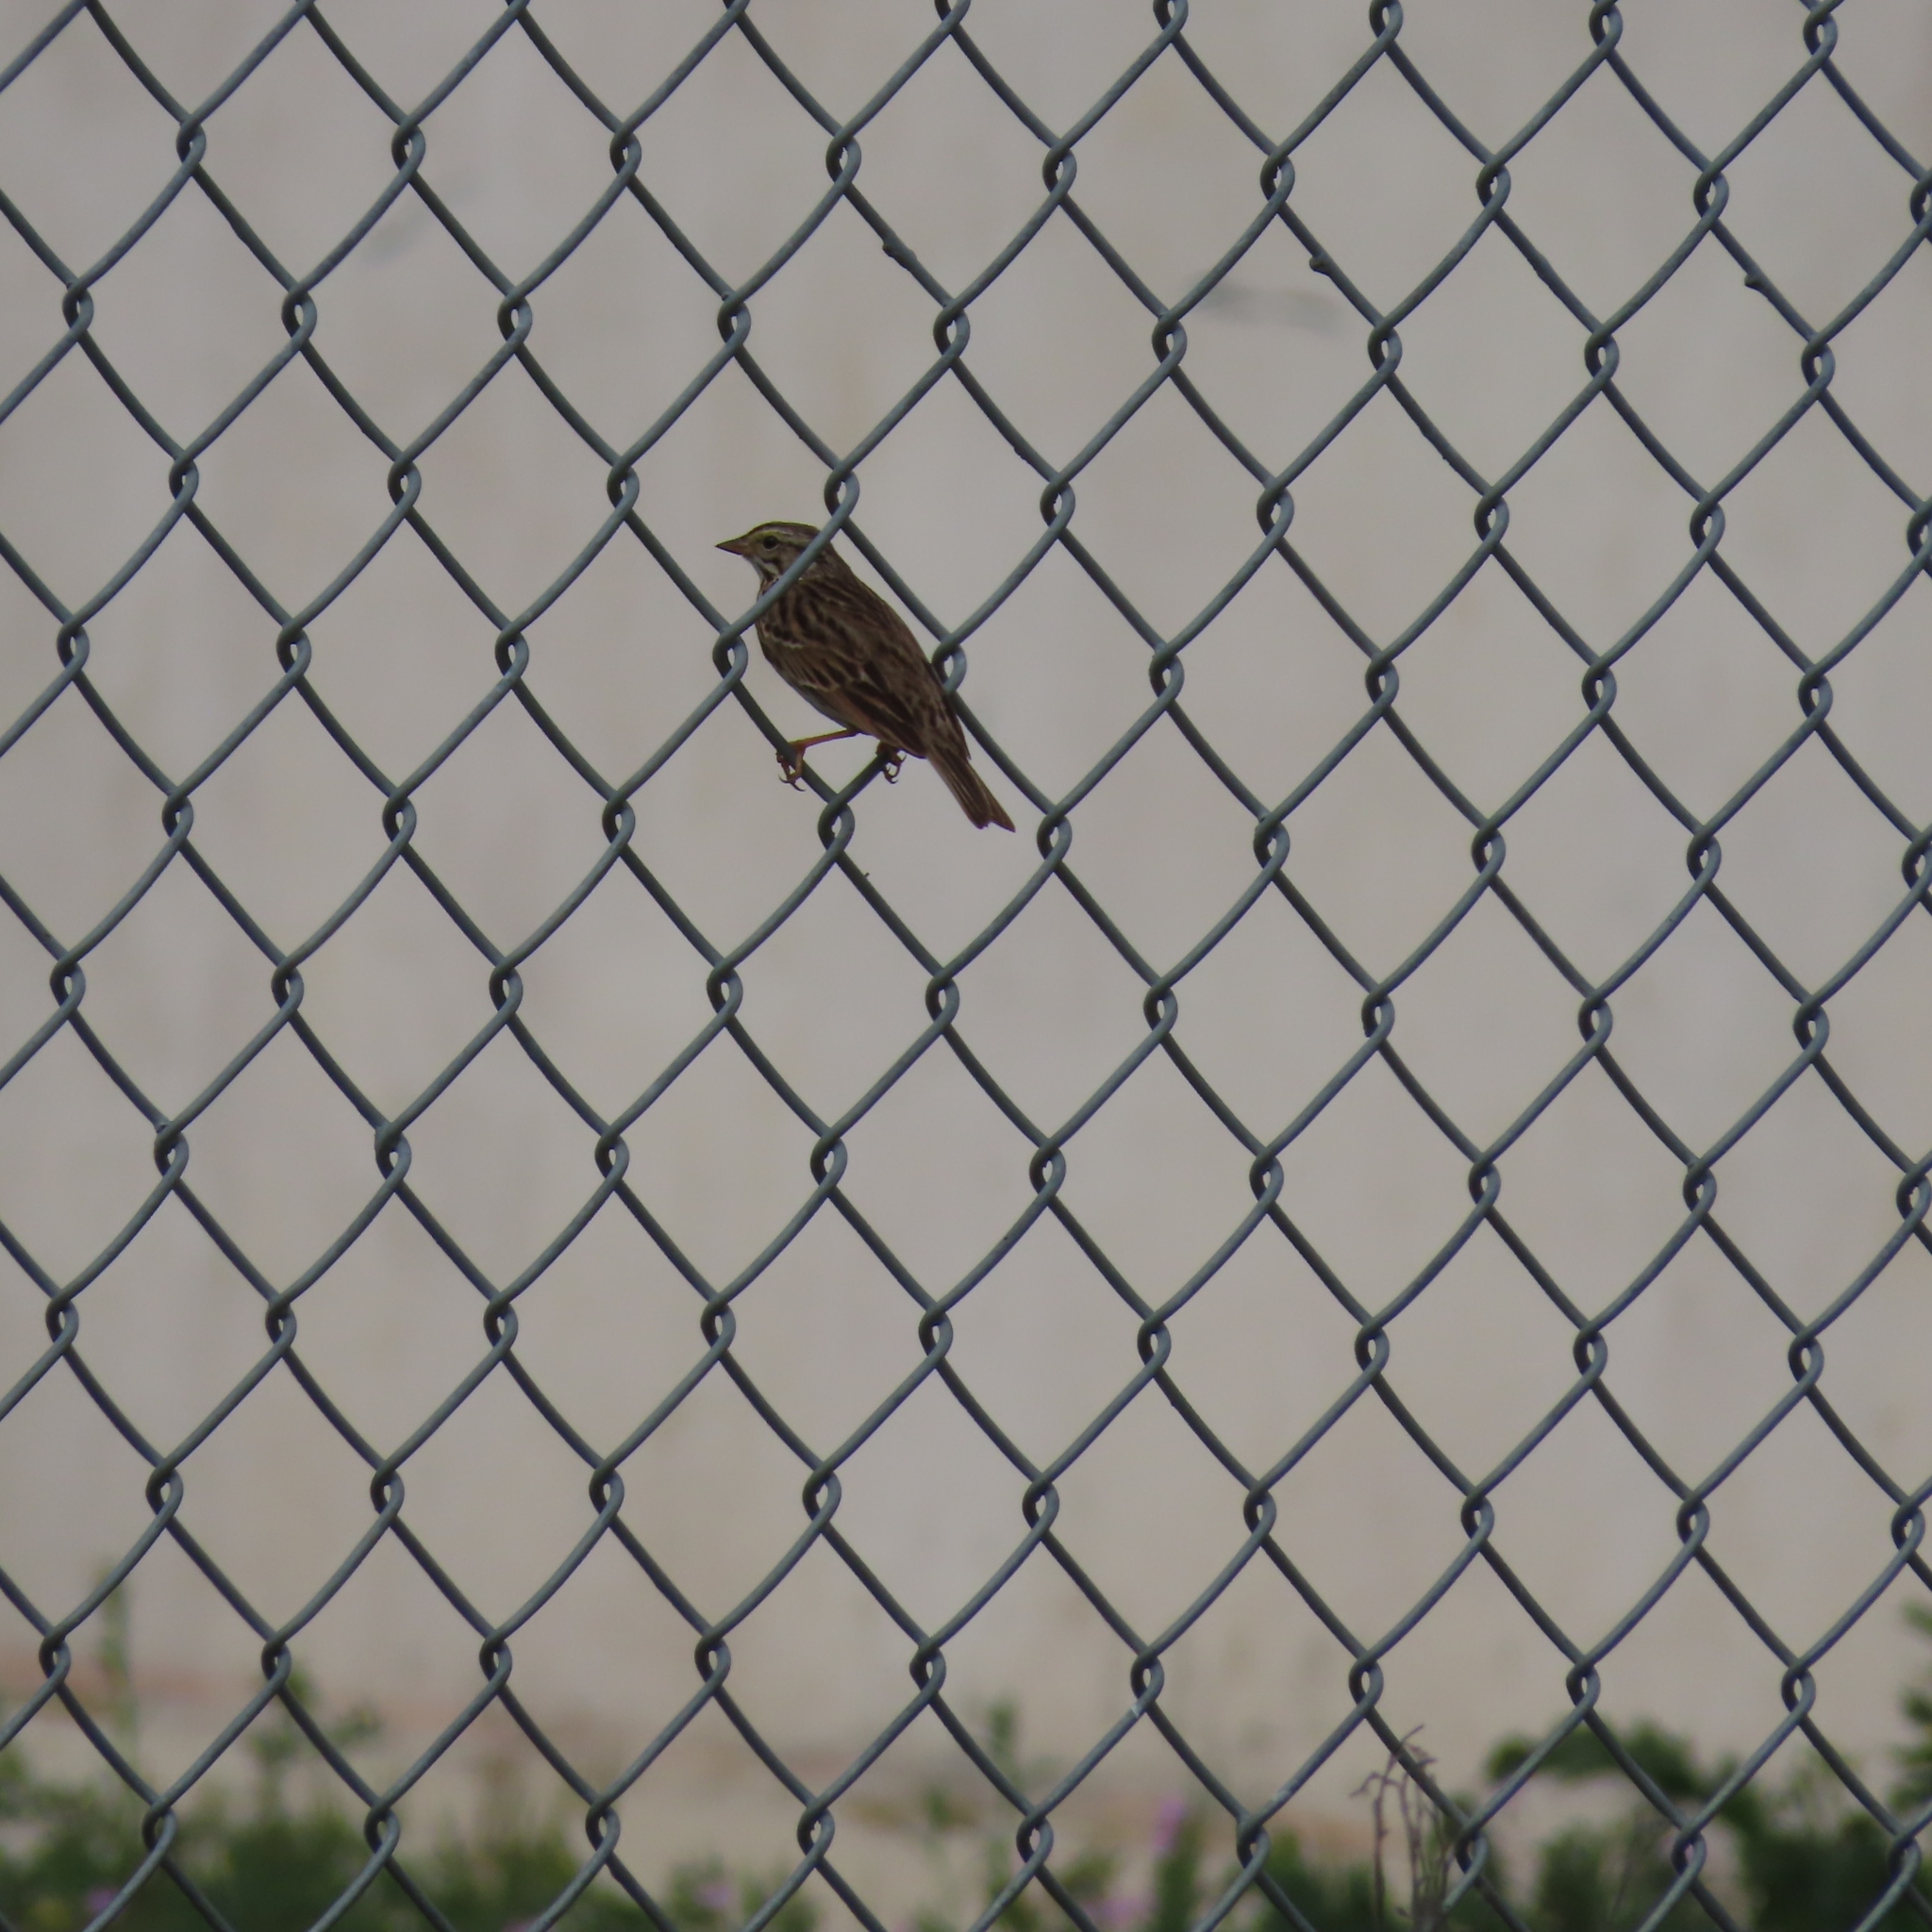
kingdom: Animalia
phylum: Chordata
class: Aves
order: Passeriformes
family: Passerellidae
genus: Passerculus
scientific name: Passerculus sandwichensis
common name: Savannah sparrow
